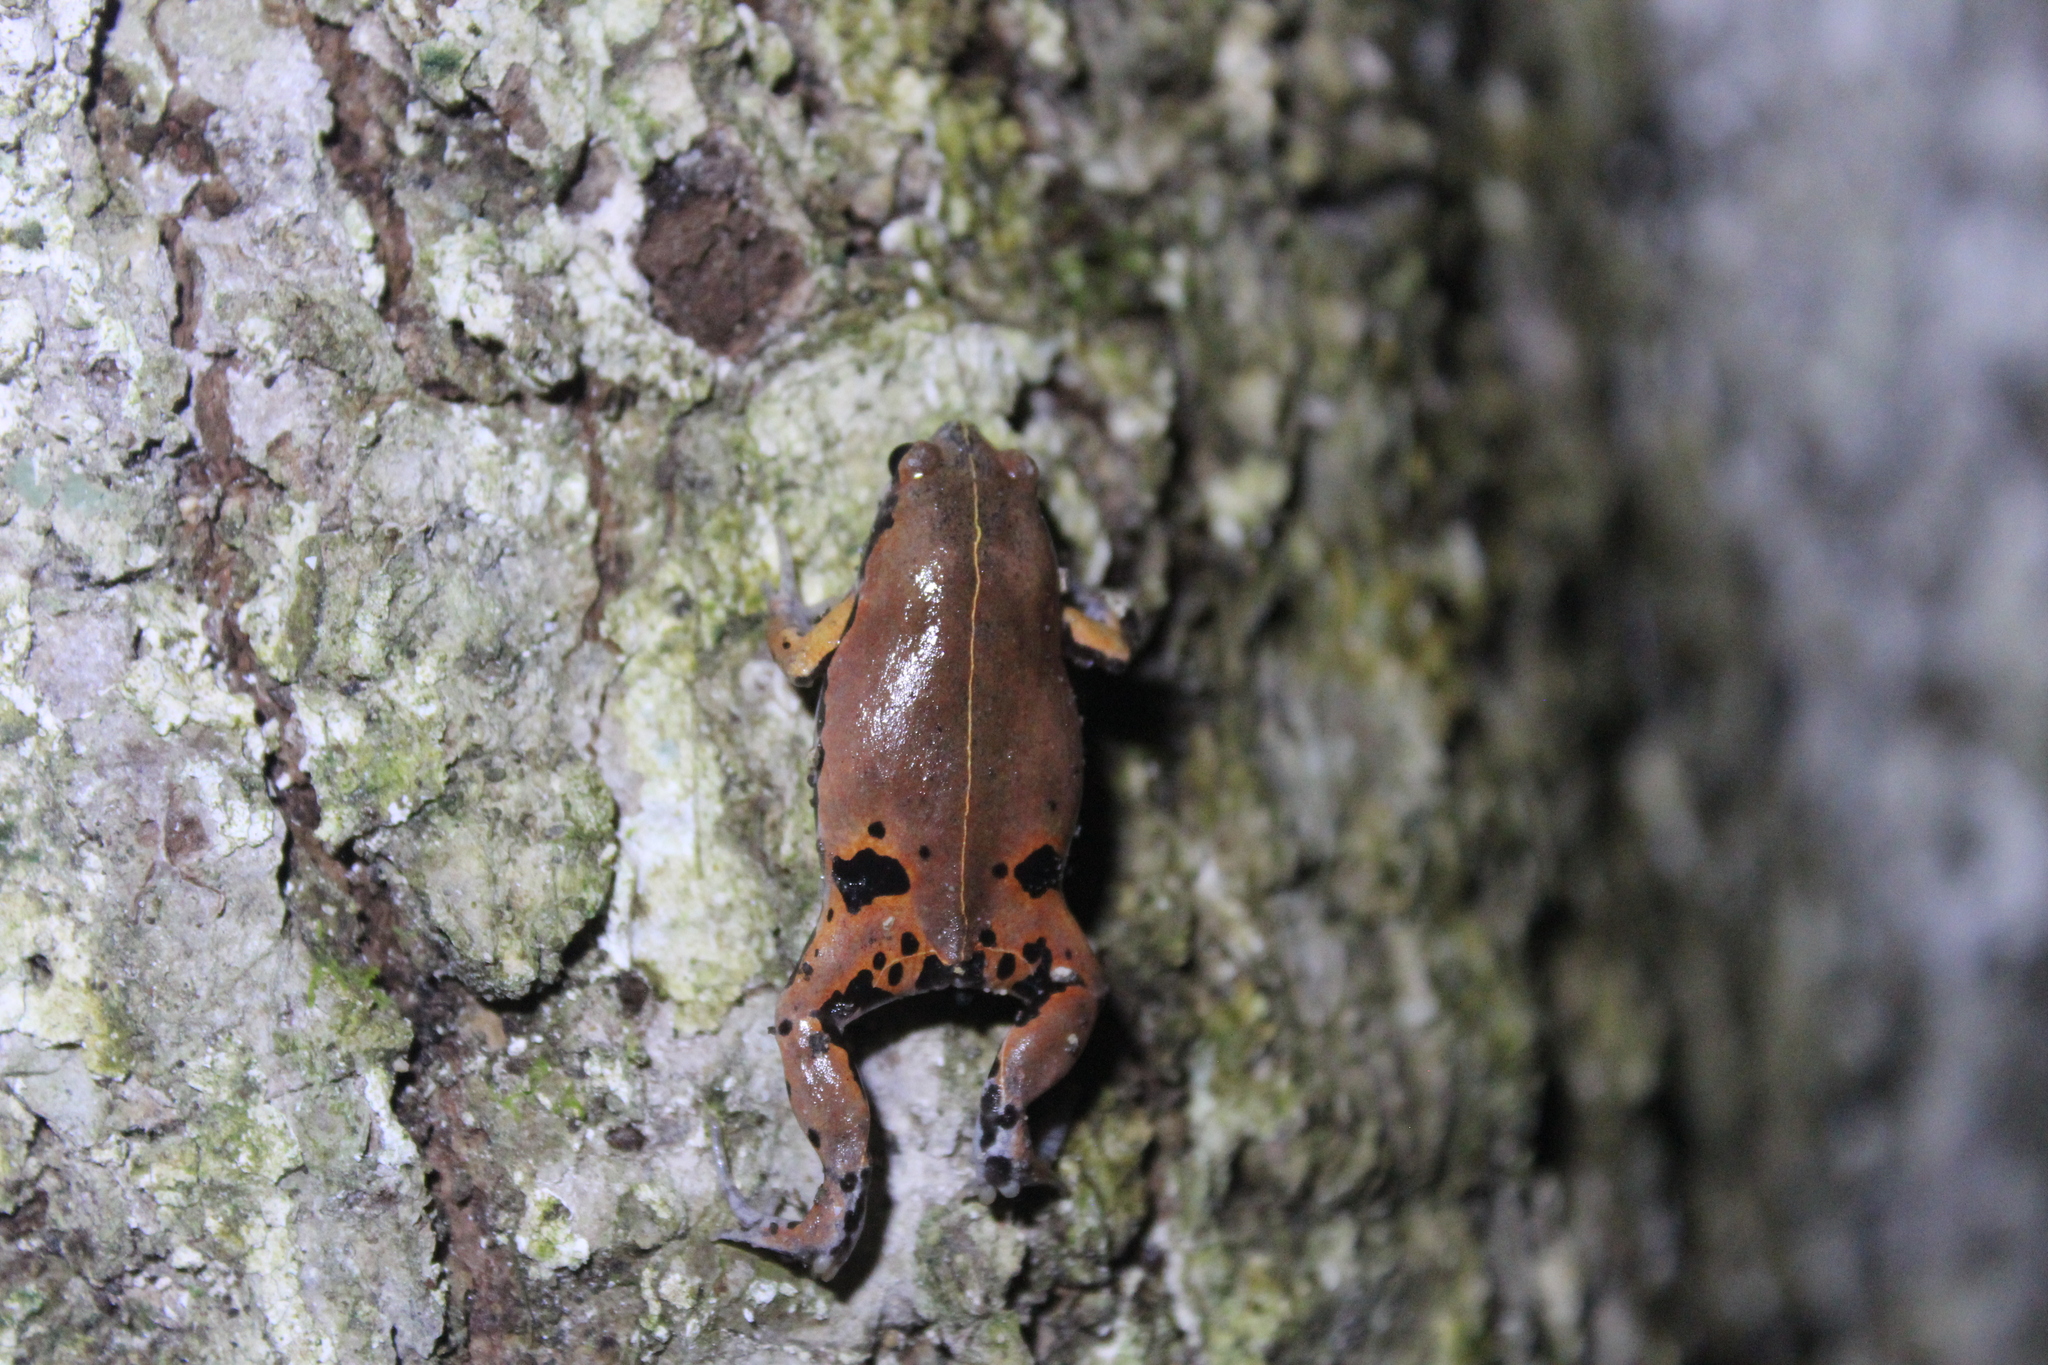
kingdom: Animalia
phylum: Chordata
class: Amphibia
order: Anura
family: Microhylidae
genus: Hypopachus
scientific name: Hypopachus variolosus
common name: Sheep frog
